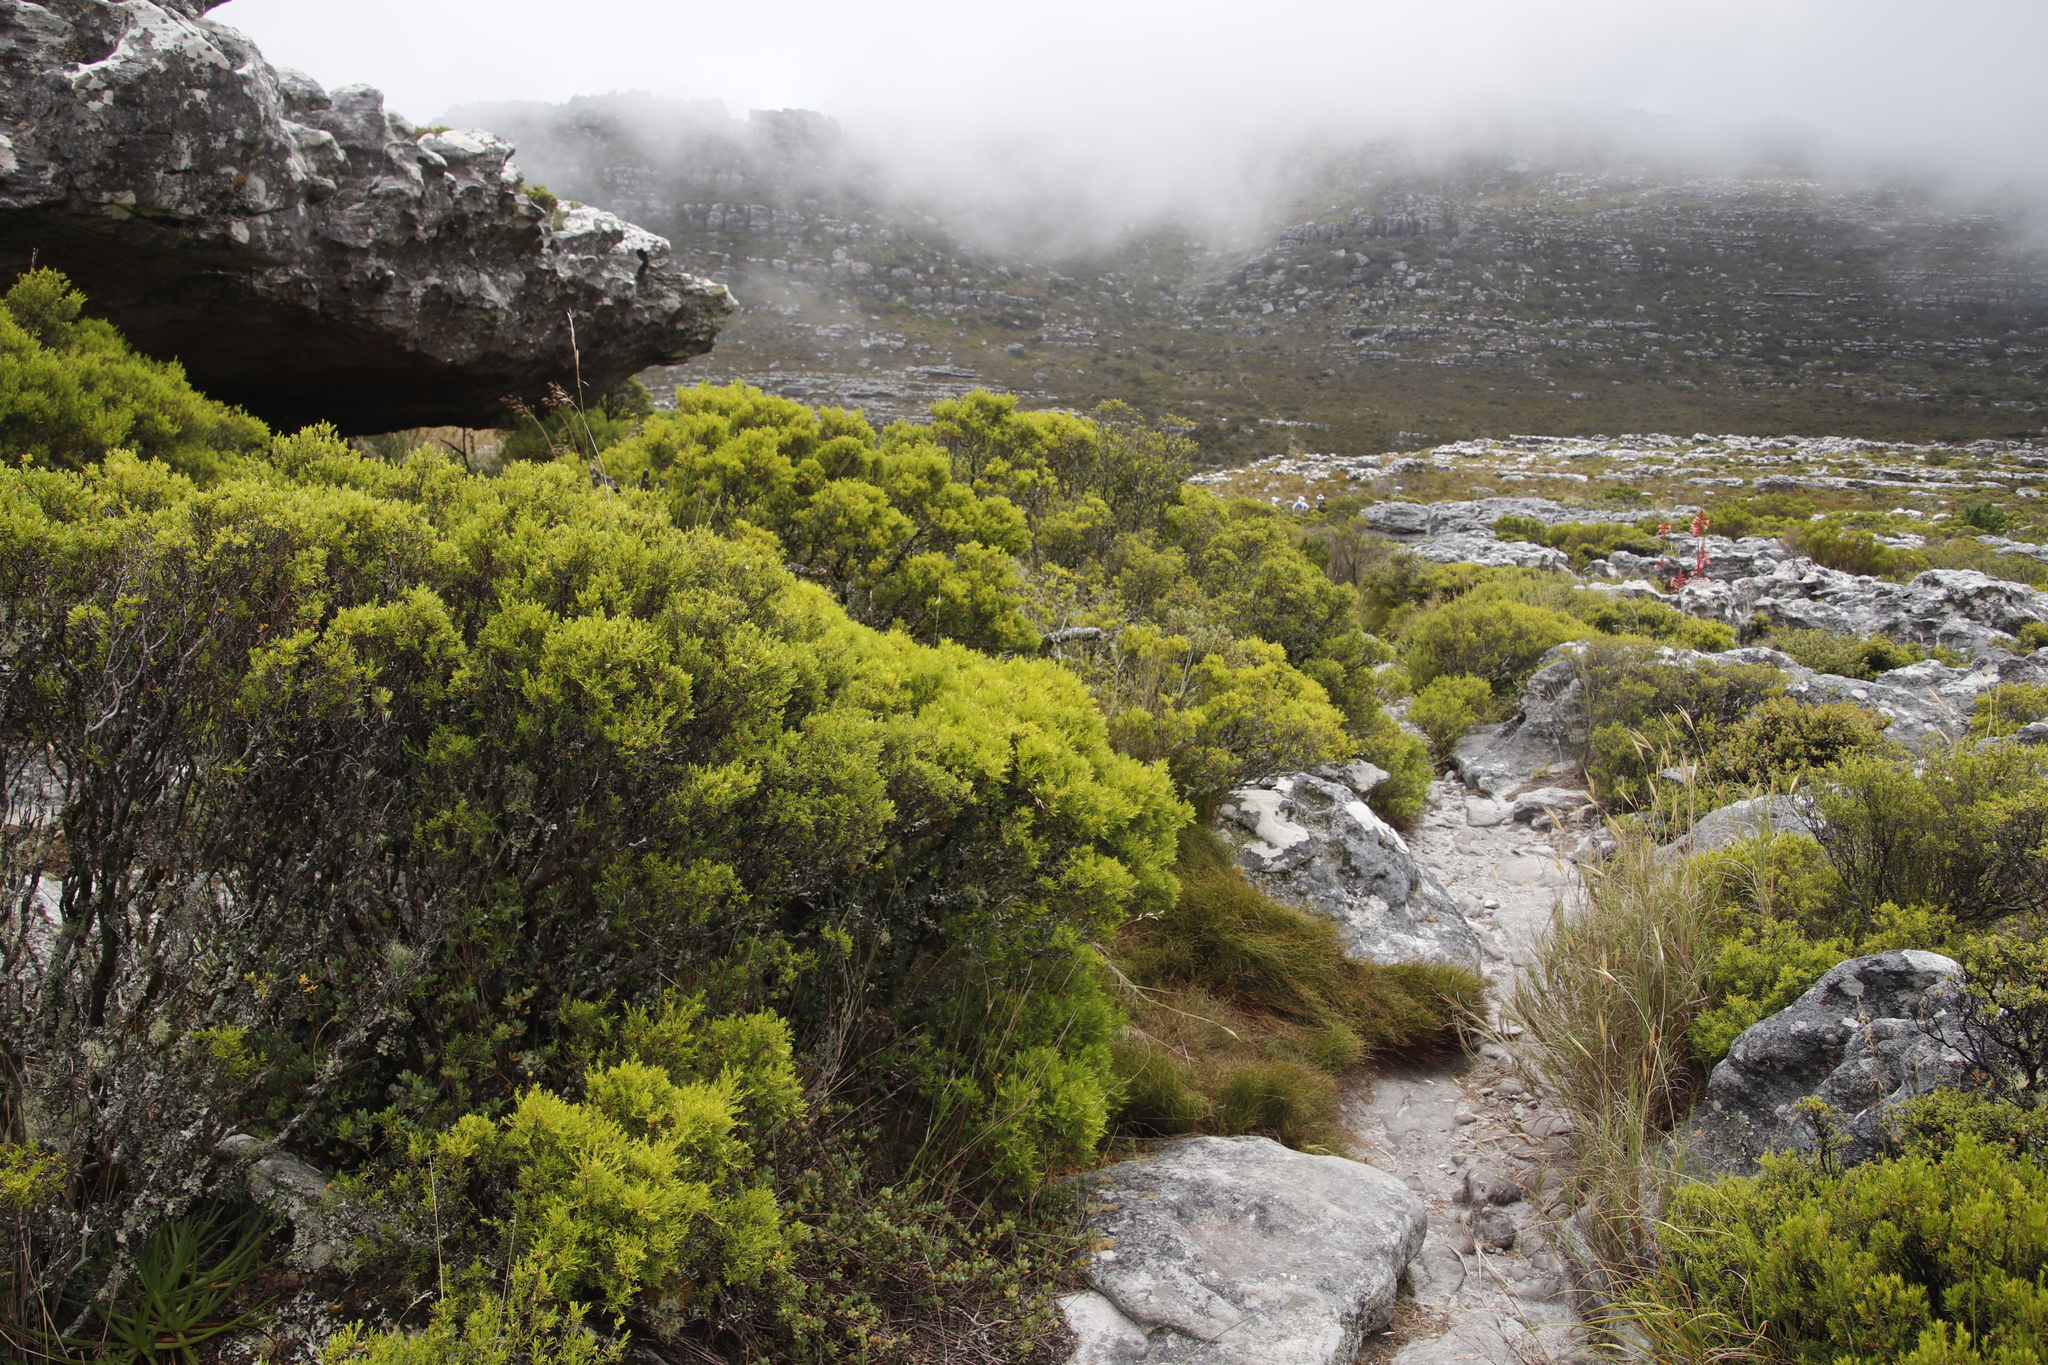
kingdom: Plantae
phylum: Tracheophyta
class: Magnoliopsida
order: Sapindales
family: Rutaceae
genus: Coleonema
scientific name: Coleonema album
